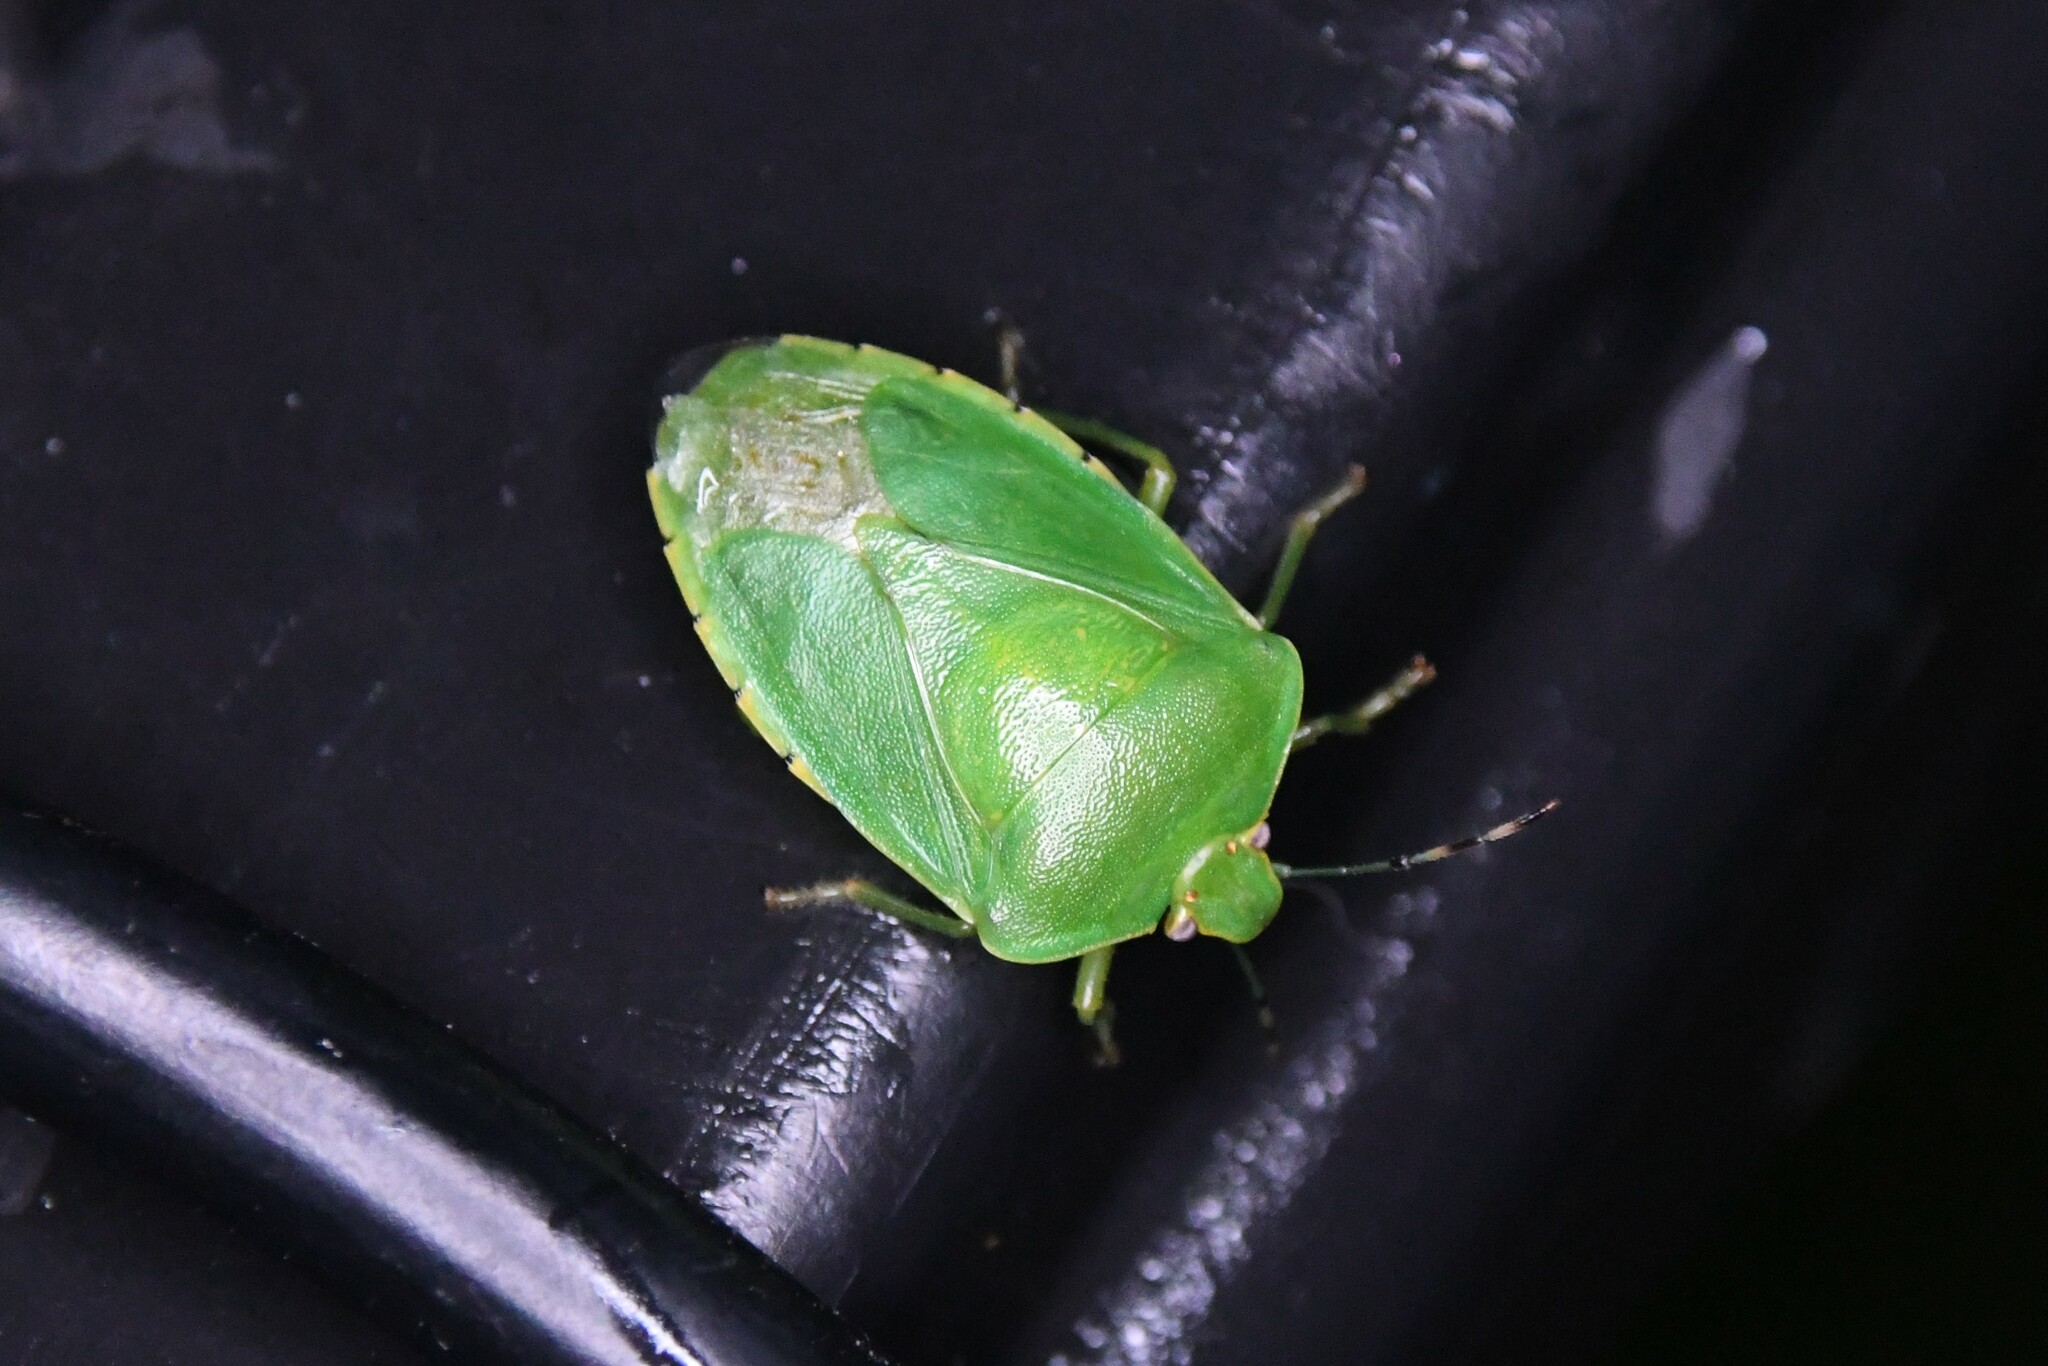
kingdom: Animalia
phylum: Arthropoda
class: Insecta
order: Hemiptera
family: Pentatomidae
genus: Chinavia
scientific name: Chinavia hilaris
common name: Green stink bug
